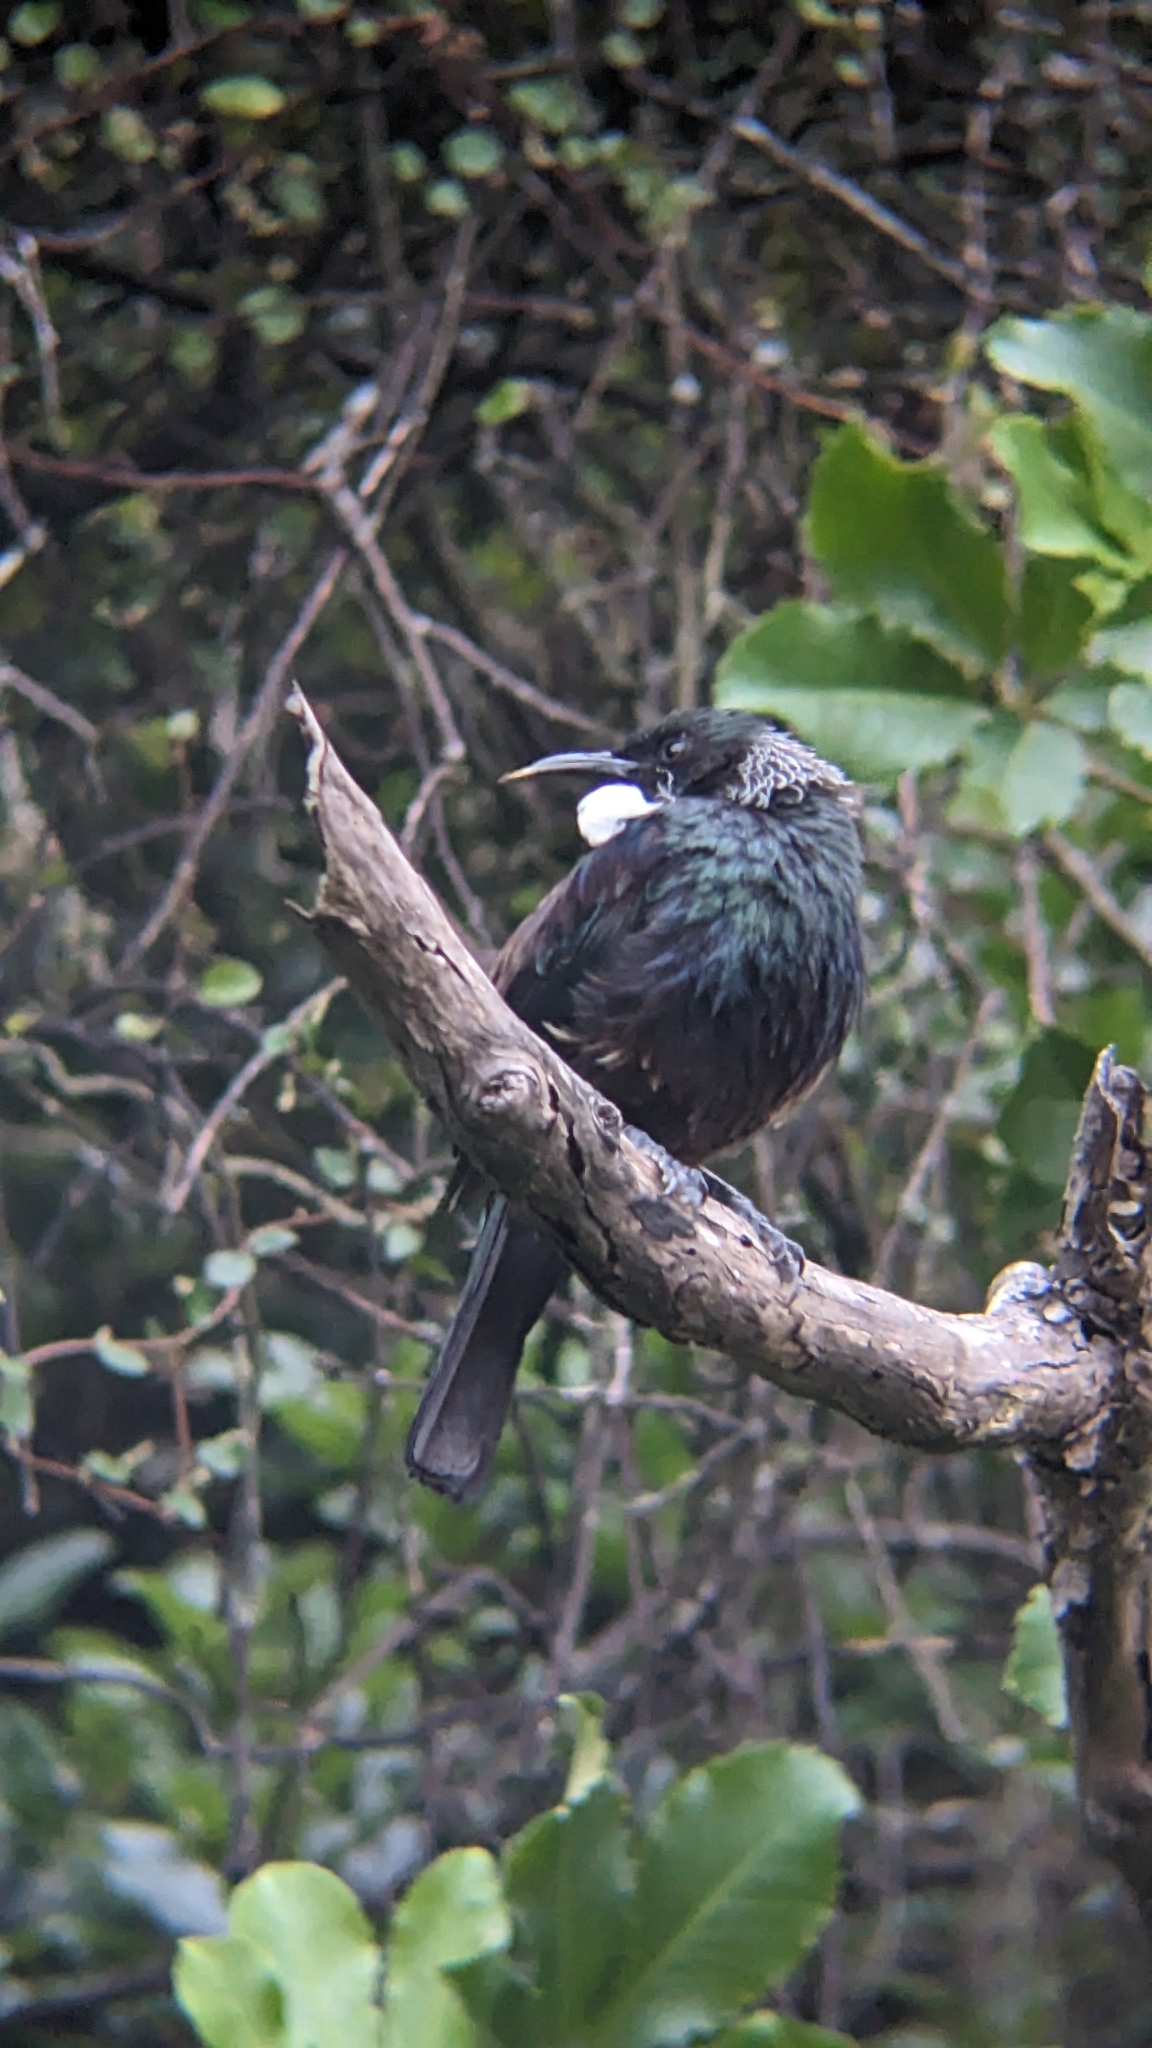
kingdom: Animalia
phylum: Chordata
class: Aves
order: Passeriformes
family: Meliphagidae
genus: Prosthemadera
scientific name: Prosthemadera novaeseelandiae
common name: Tui
